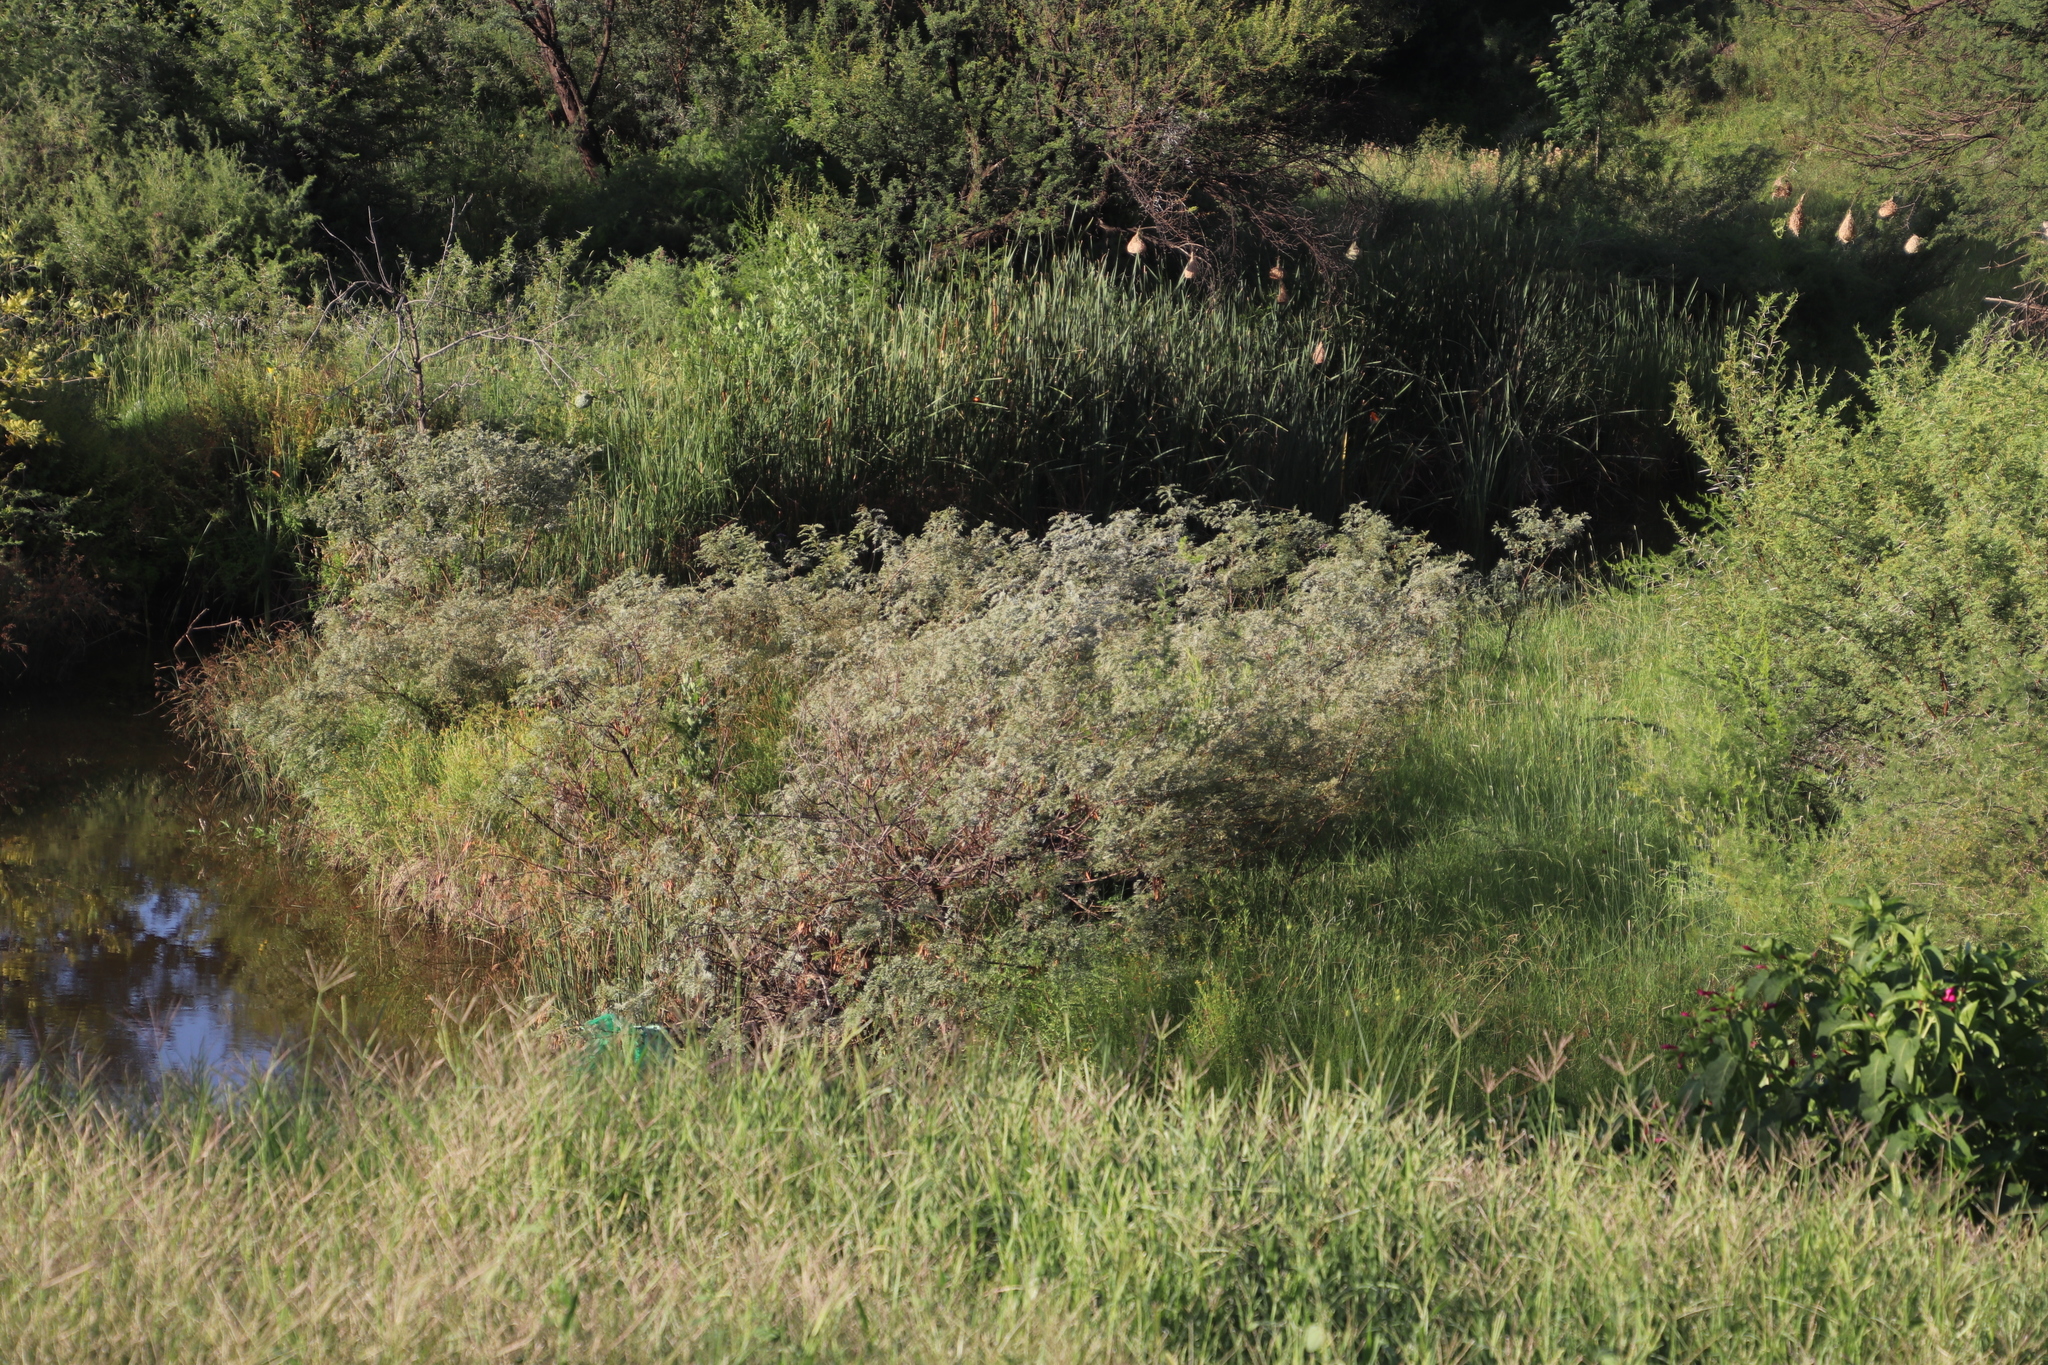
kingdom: Plantae
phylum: Tracheophyta
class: Magnoliopsida
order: Fabales
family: Fabaceae
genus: Sesbania
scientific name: Sesbania punicea
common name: Rattlebox
